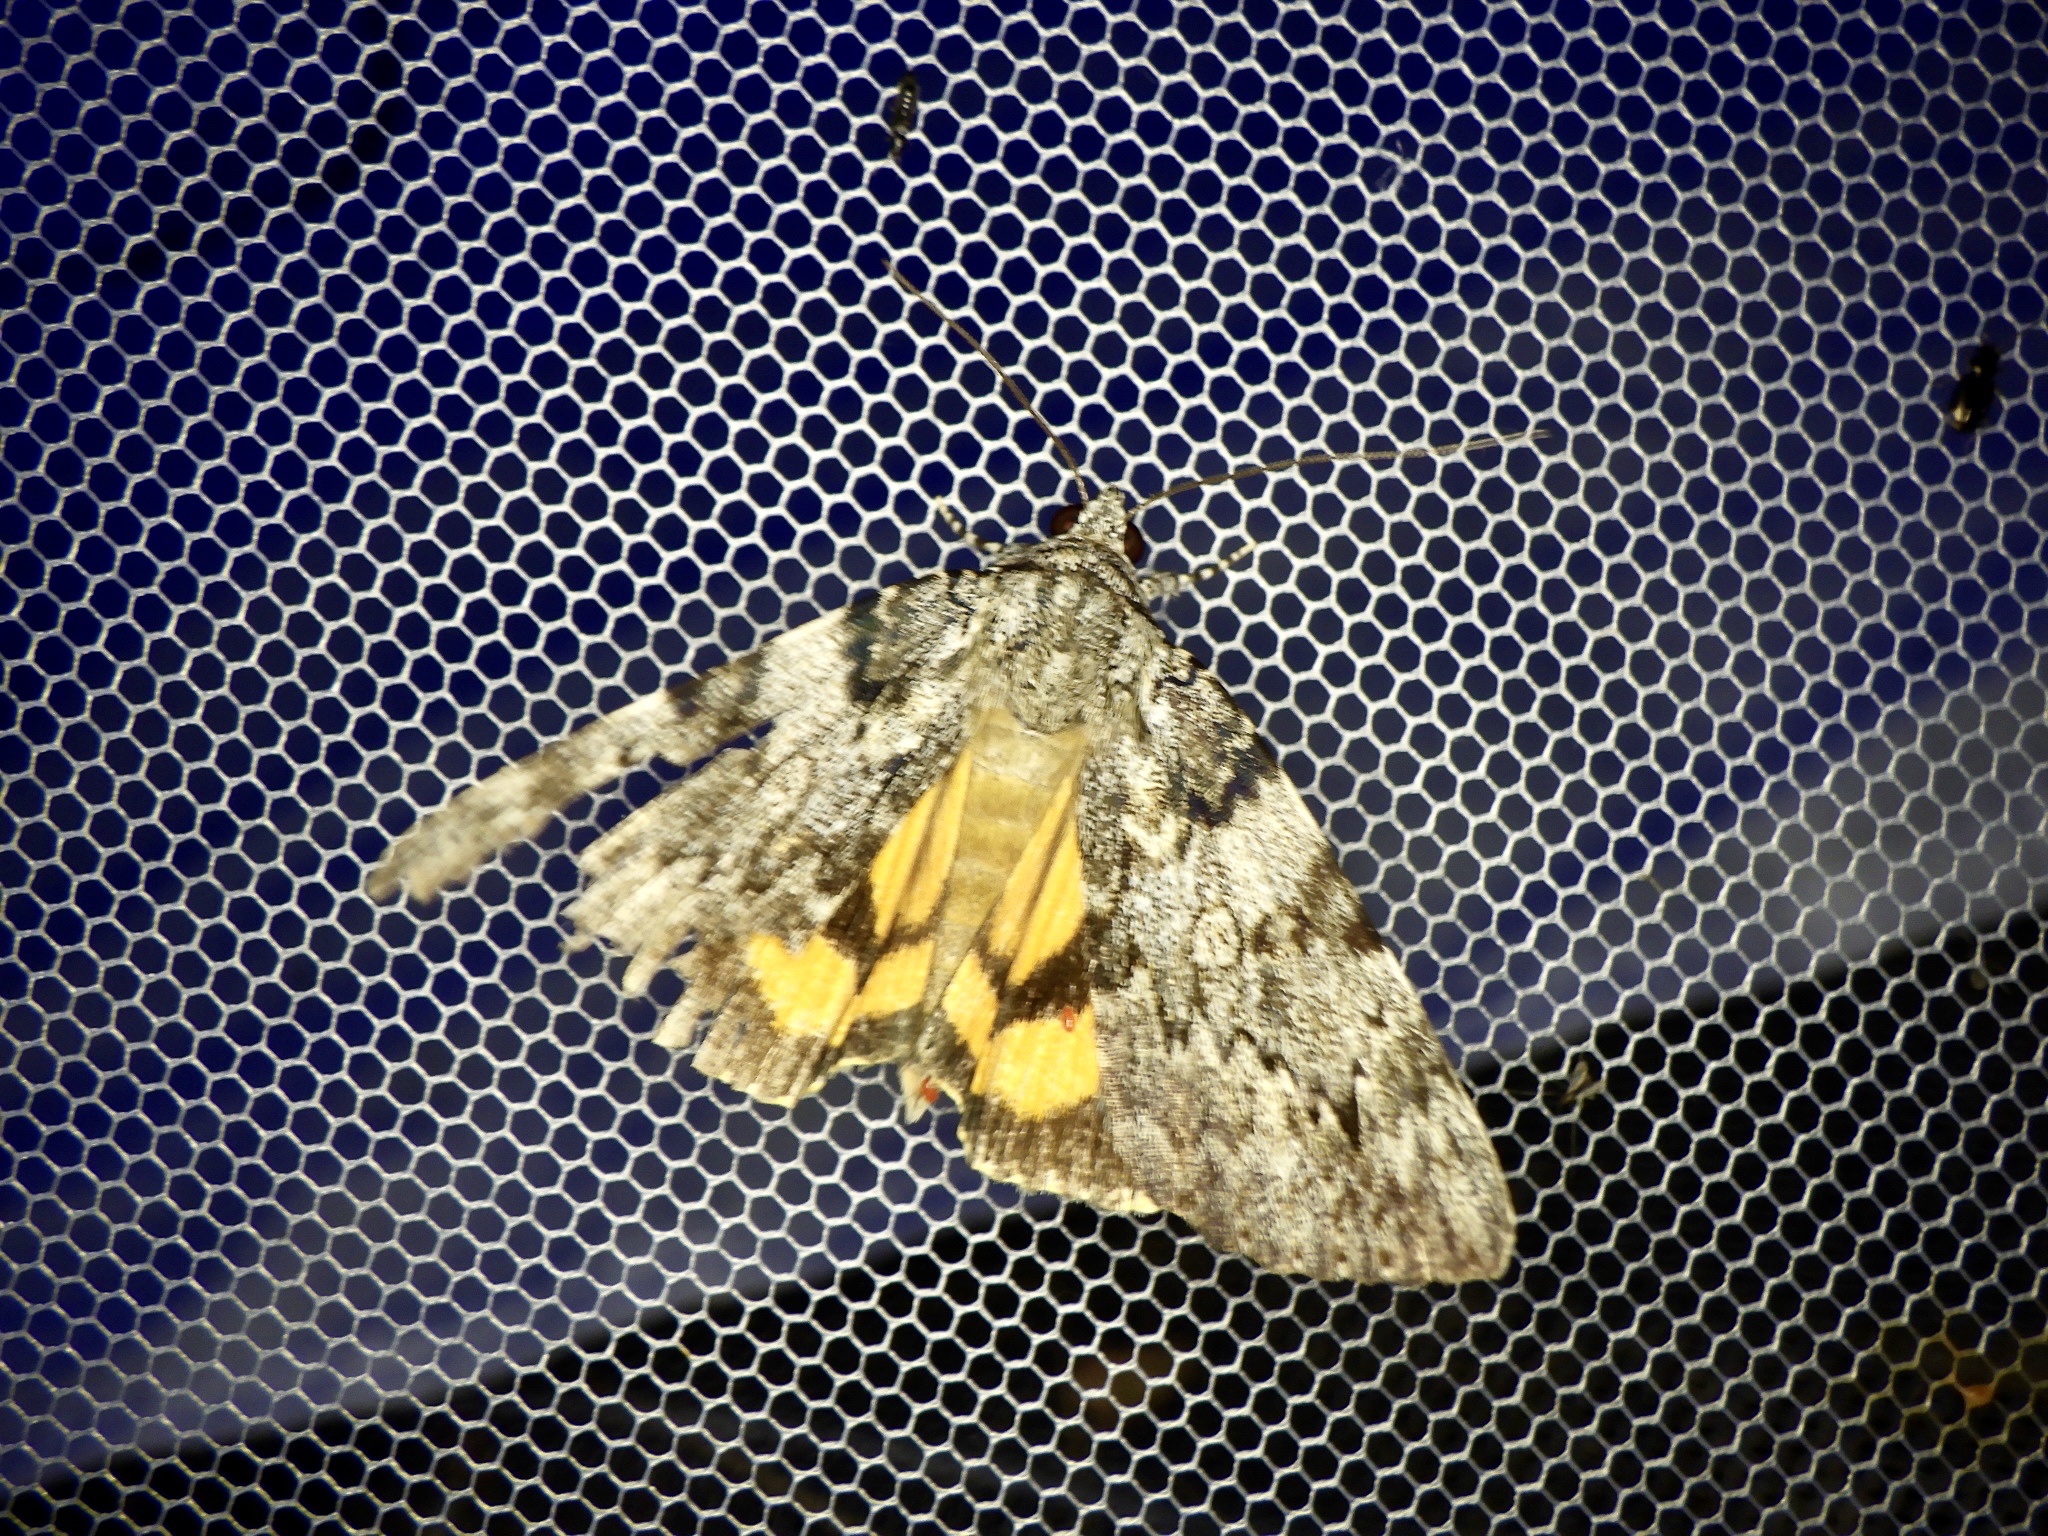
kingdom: Animalia
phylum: Arthropoda
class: Insecta
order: Lepidoptera
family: Erebidae
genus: Catocala
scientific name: Catocala duplicata
